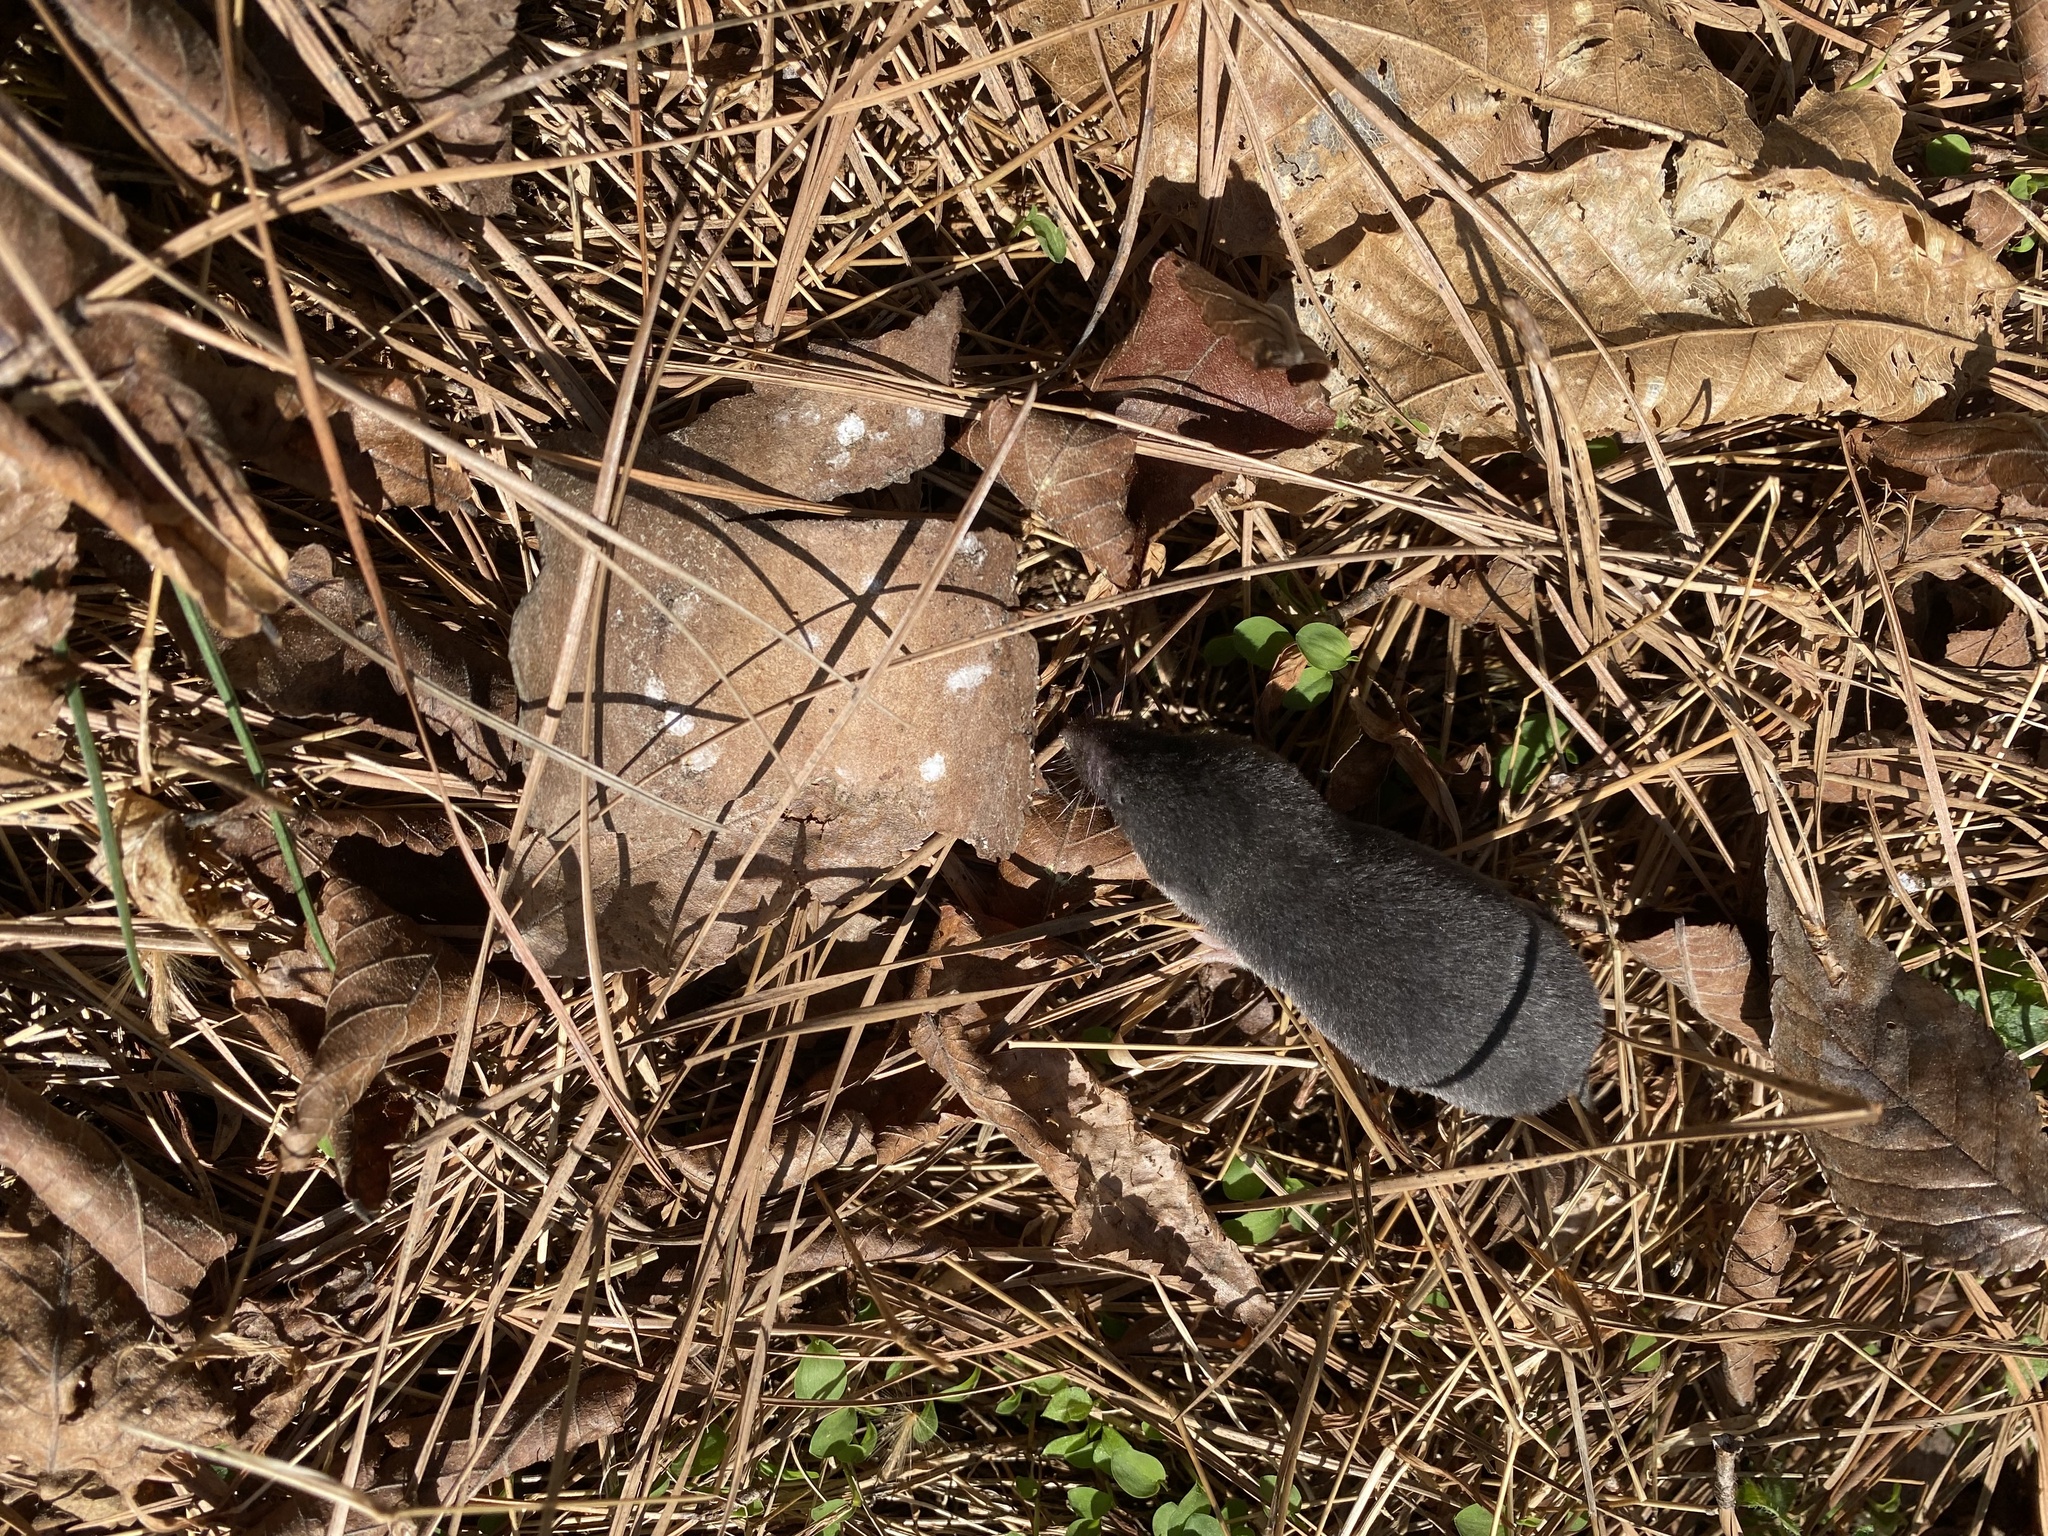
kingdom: Animalia
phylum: Chordata
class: Mammalia
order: Soricomorpha
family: Soricidae
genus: Blarina
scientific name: Blarina carolinensis
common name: Southern short-tailed shrew
